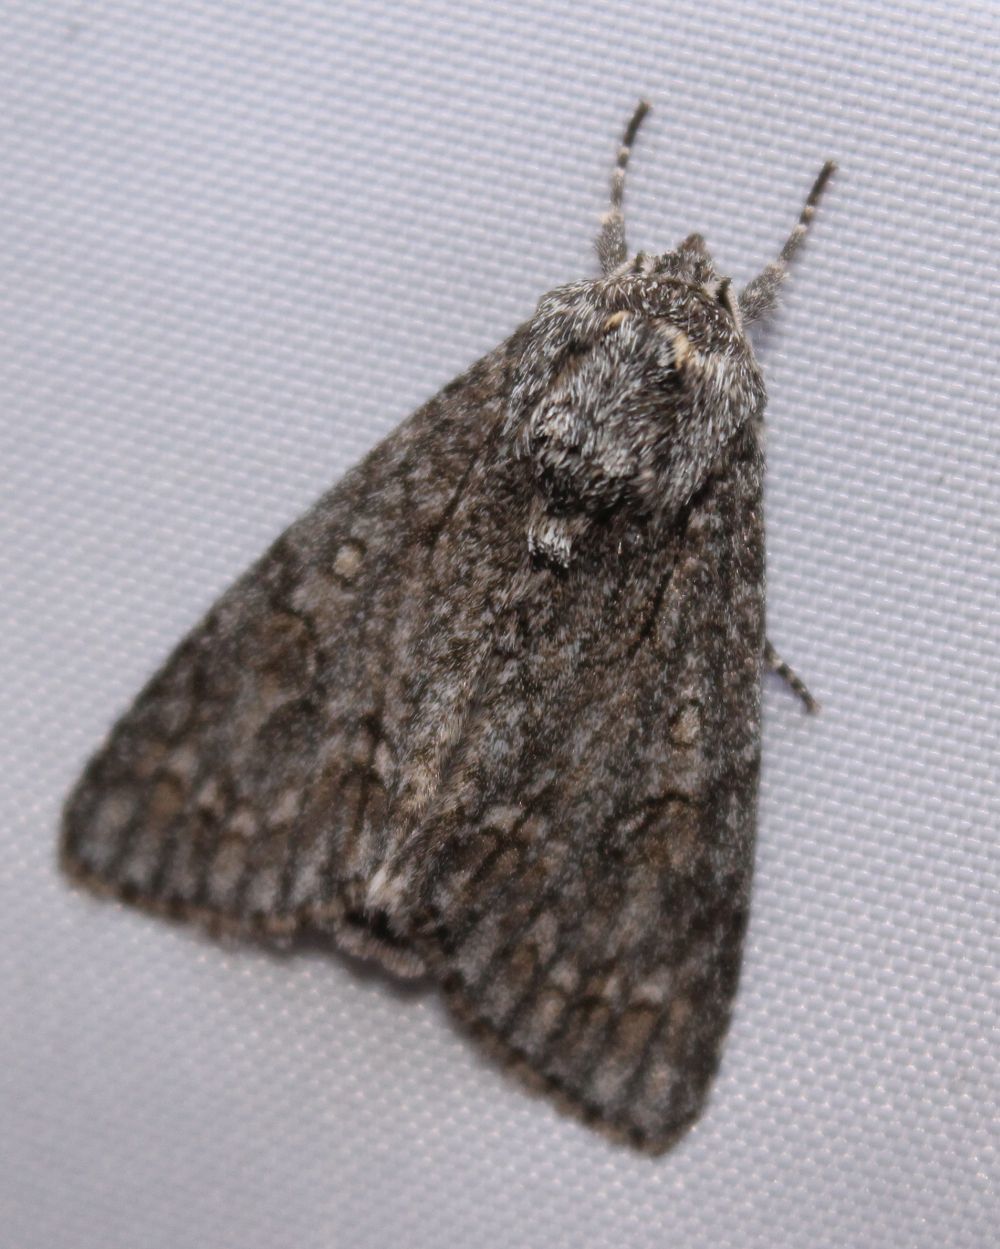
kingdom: Animalia
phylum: Arthropoda
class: Insecta
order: Lepidoptera
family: Noctuidae
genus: Acronicta
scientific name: Acronicta aceris
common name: Sycamore
